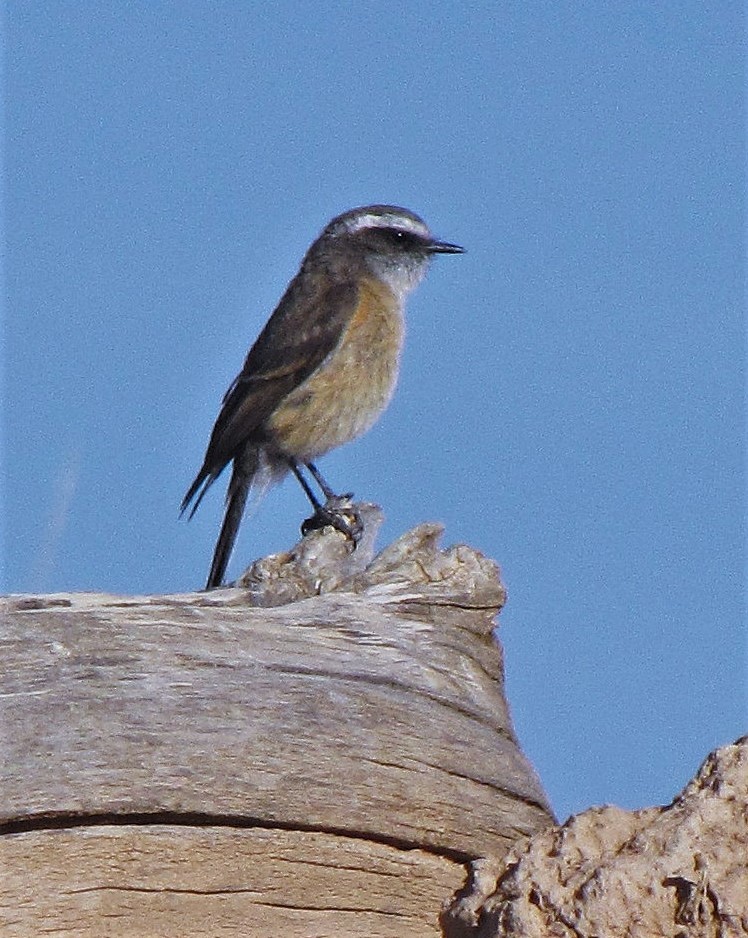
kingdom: Animalia
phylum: Chordata
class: Aves
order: Passeriformes
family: Tyrannidae
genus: Ochthoeca
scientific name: Ochthoeca oenanthoides
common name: D'orbigny's chat-tyrant
